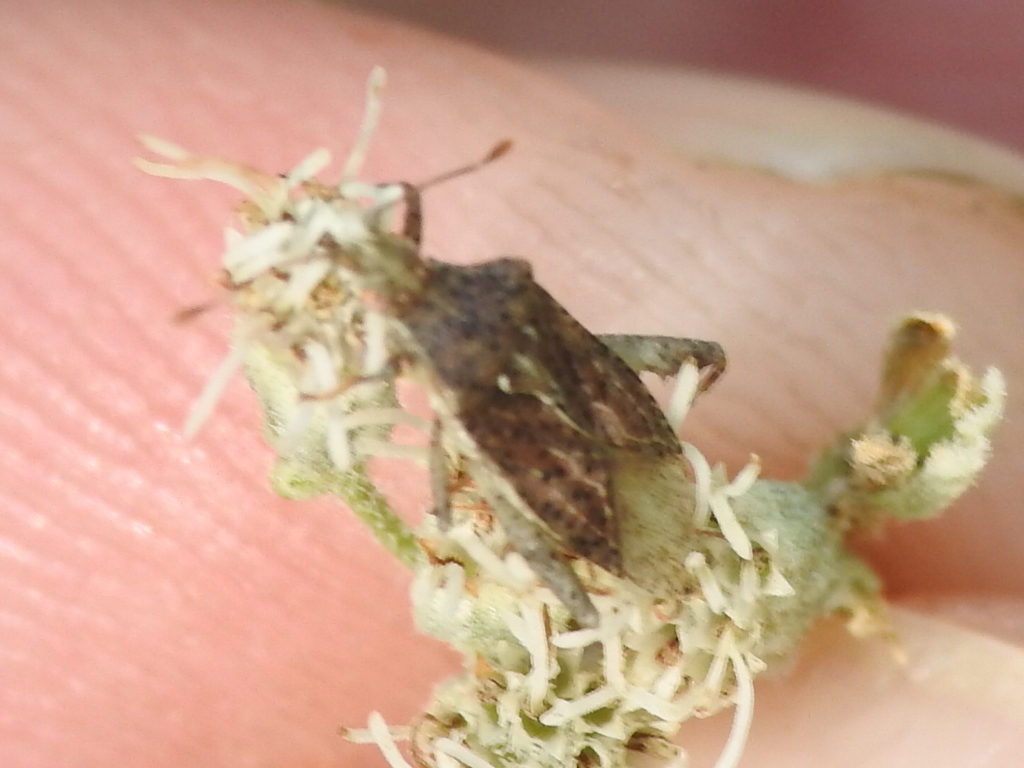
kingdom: Animalia
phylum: Arthropoda
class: Insecta
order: Hemiptera
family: Rhopalidae
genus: Harmostes
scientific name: Harmostes fraterculus
